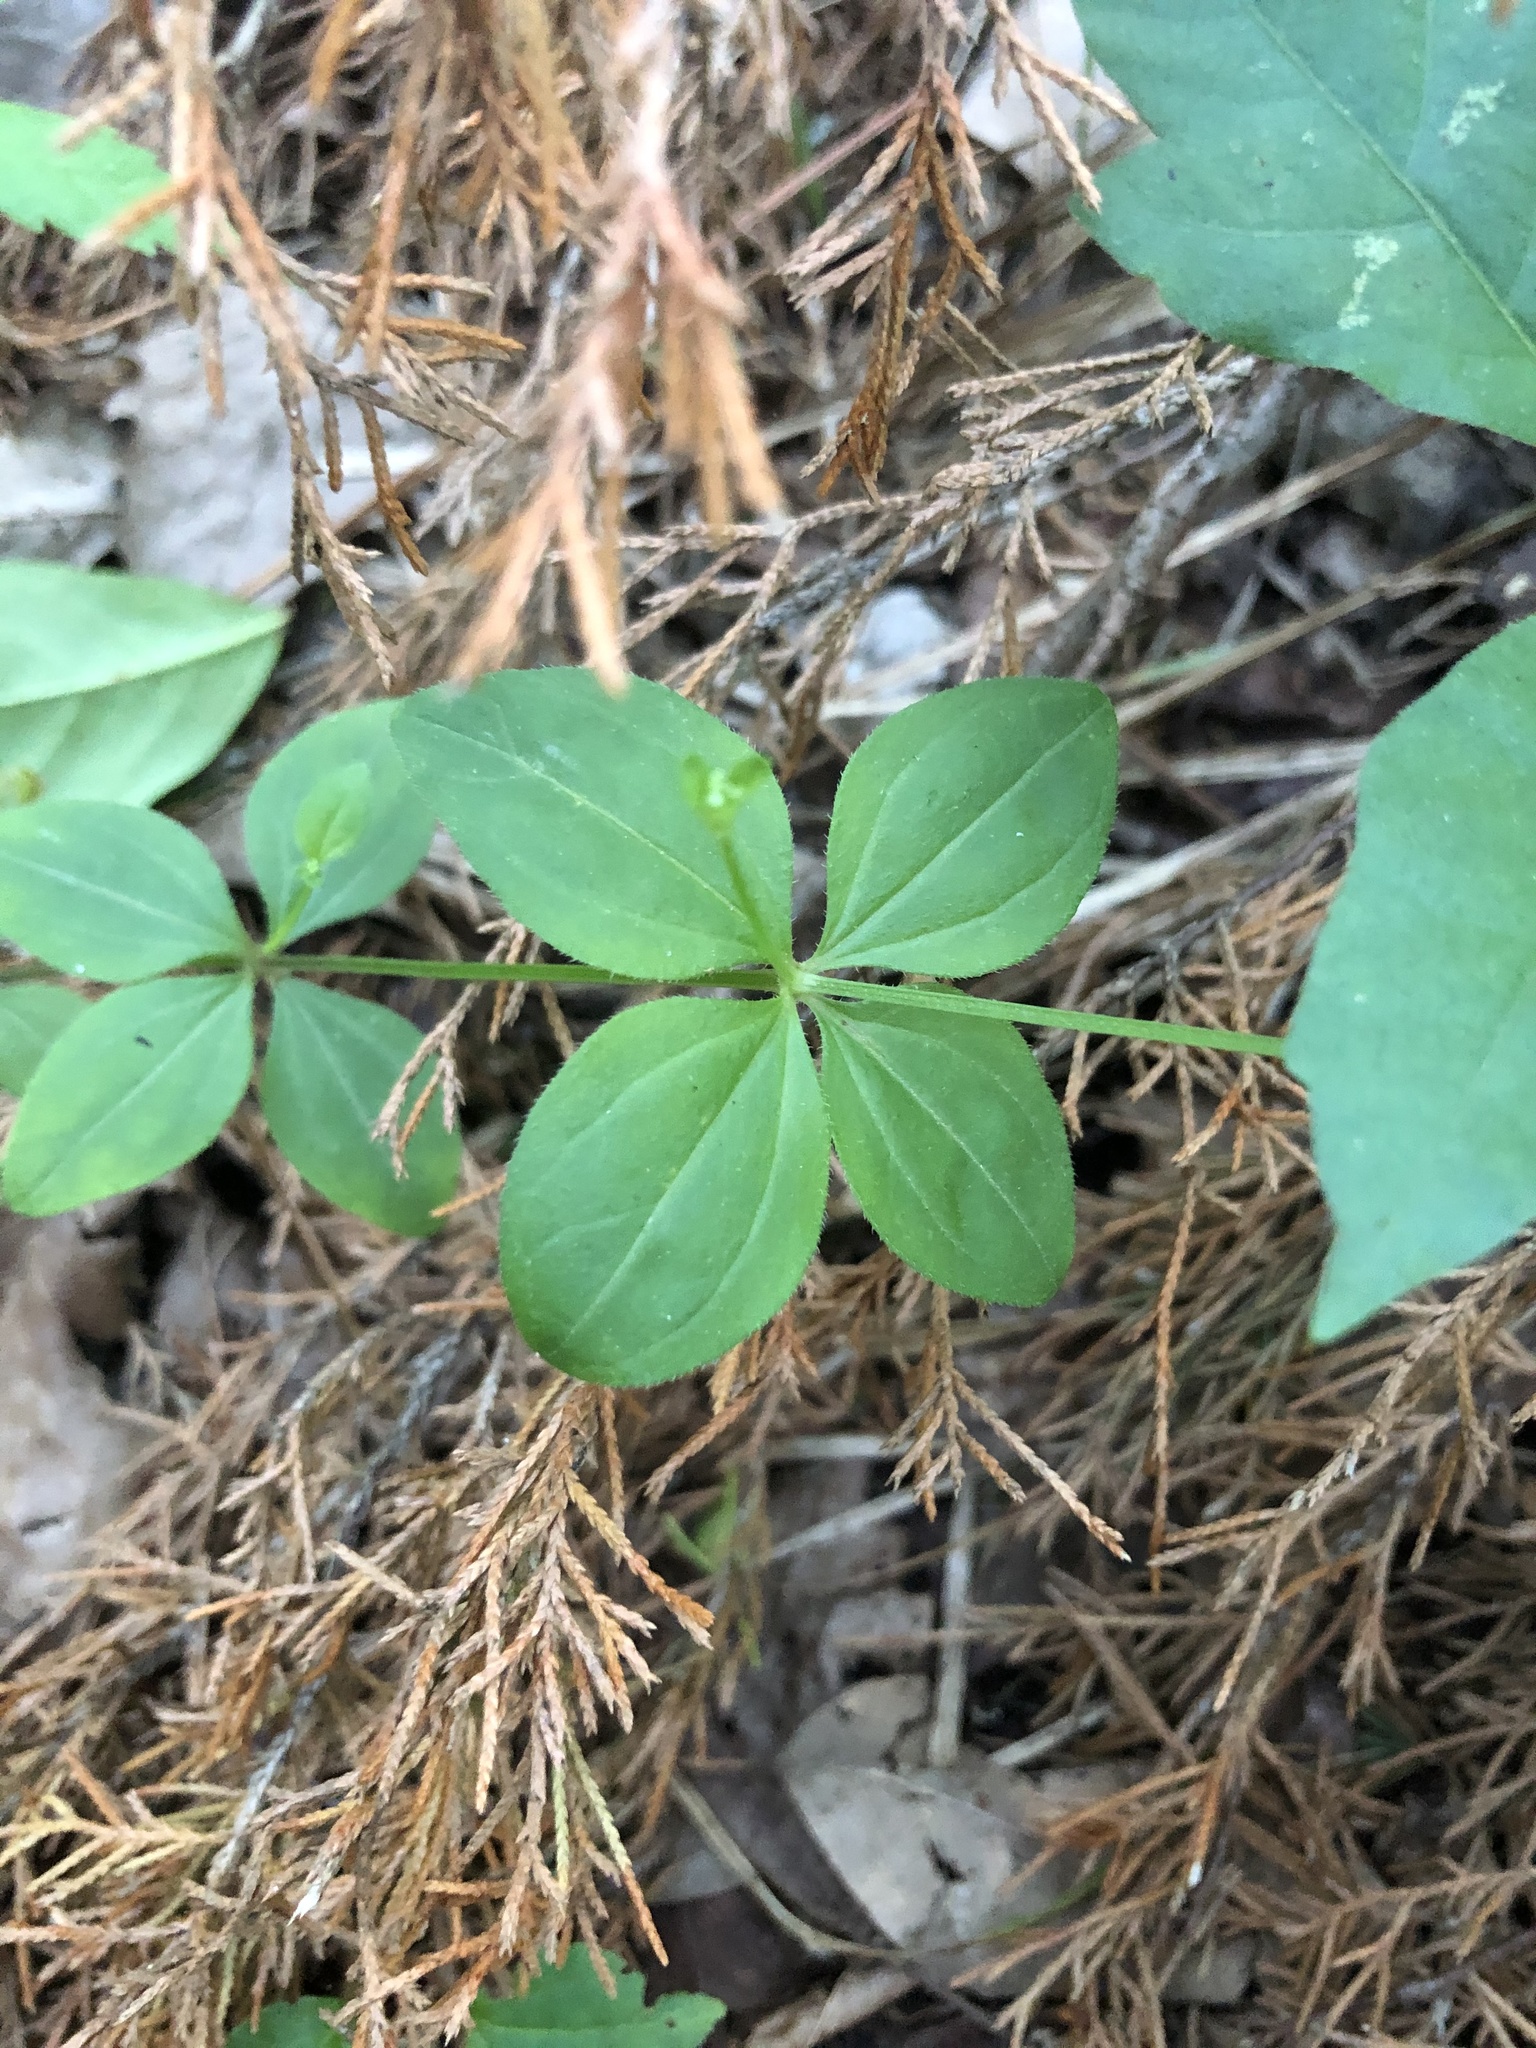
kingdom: Plantae
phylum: Tracheophyta
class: Magnoliopsida
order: Gentianales
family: Rubiaceae
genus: Galium
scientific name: Galium circaezans
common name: Forest bedstraw
